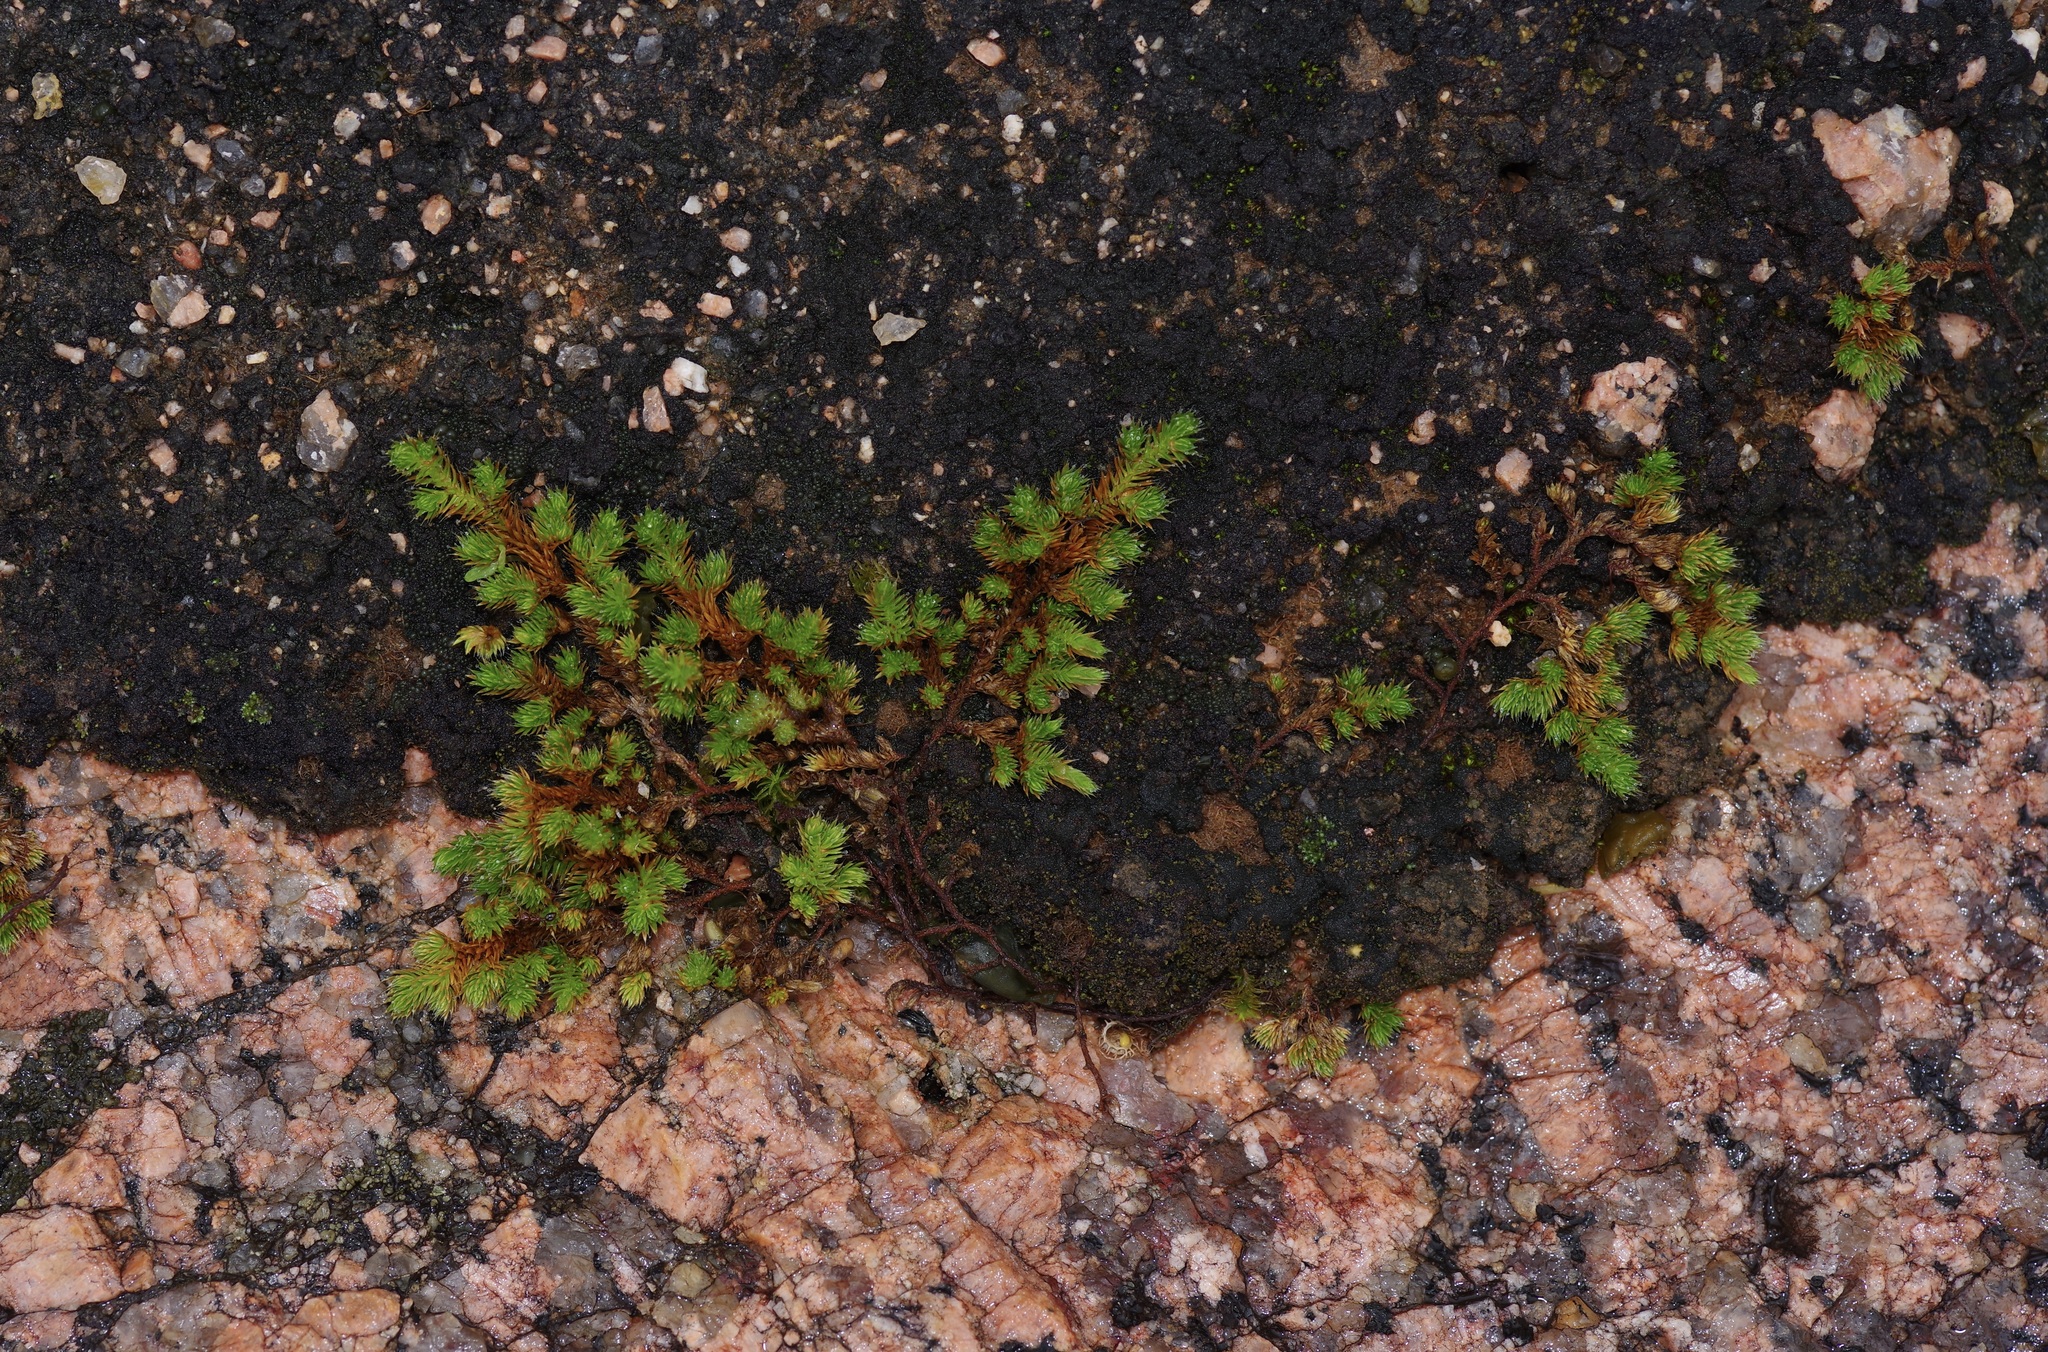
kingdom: Plantae
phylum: Tracheophyta
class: Lycopodiopsida
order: Selaginellales
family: Selaginellaceae
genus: Selaginella
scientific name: Selaginella peruviana
